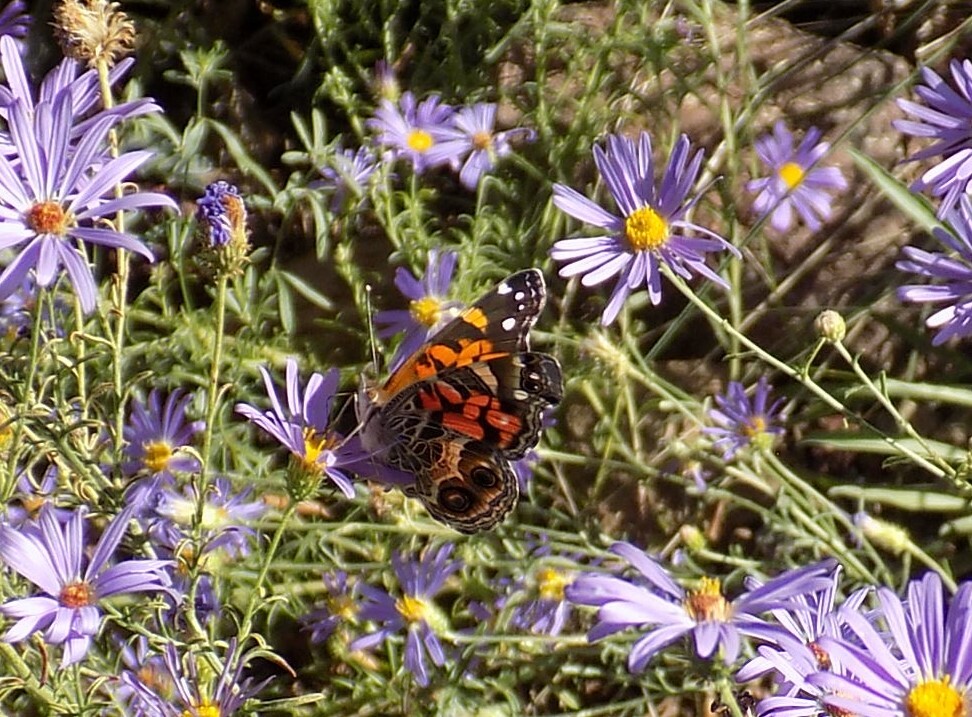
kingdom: Animalia
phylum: Arthropoda
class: Insecta
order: Lepidoptera
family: Nymphalidae
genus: Vanessa
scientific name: Vanessa virginiensis
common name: American lady
